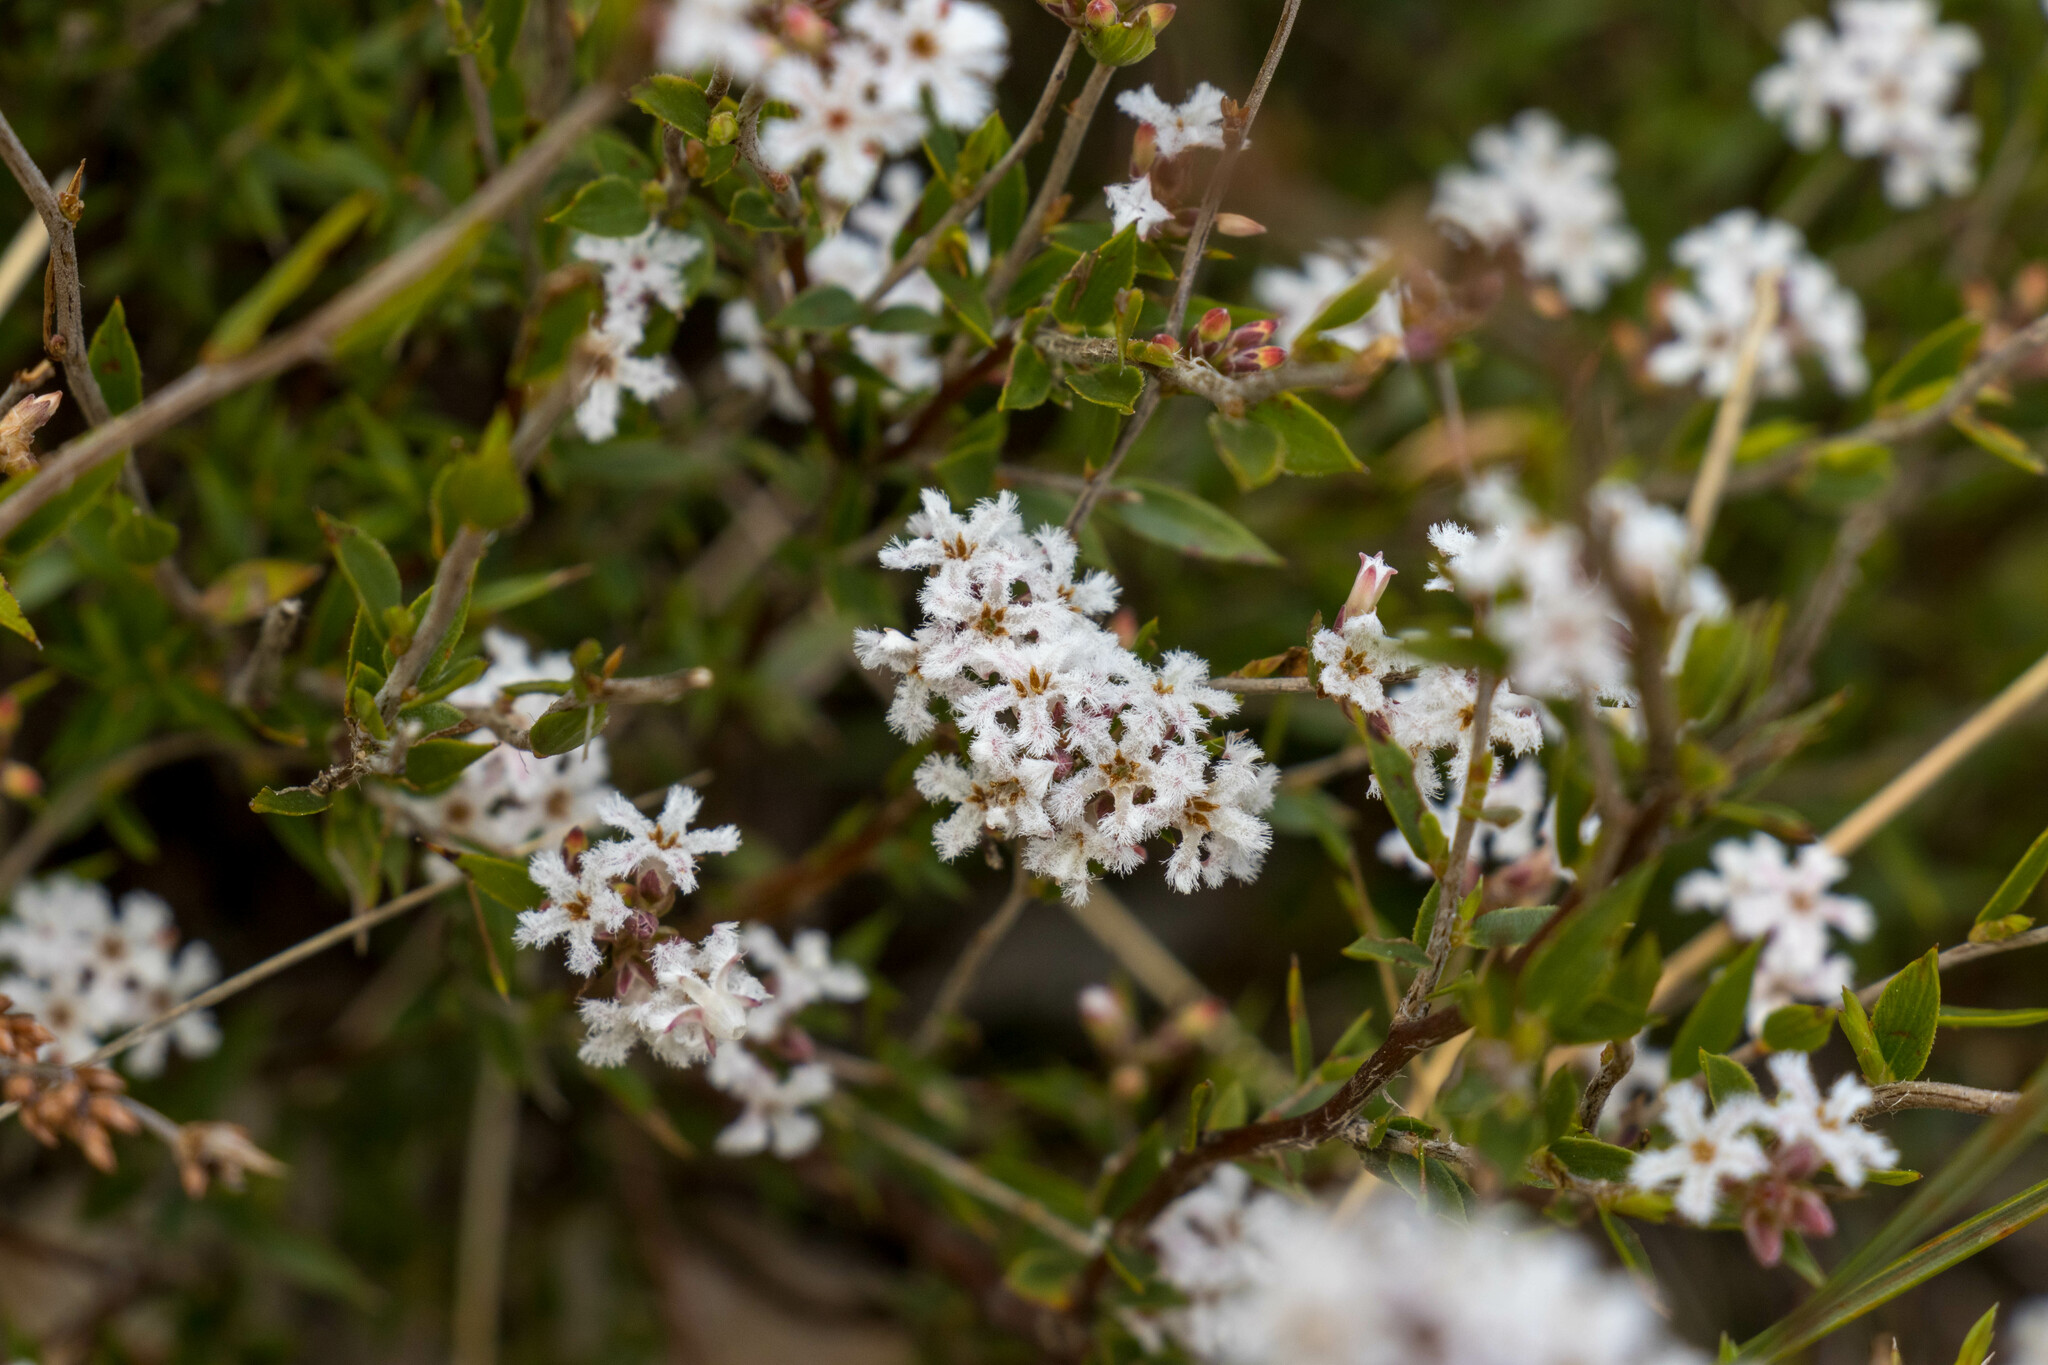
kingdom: Plantae
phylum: Tracheophyta
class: Magnoliopsida
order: Ericales
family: Ericaceae
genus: Leucopogon
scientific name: Leucopogon virgatus
